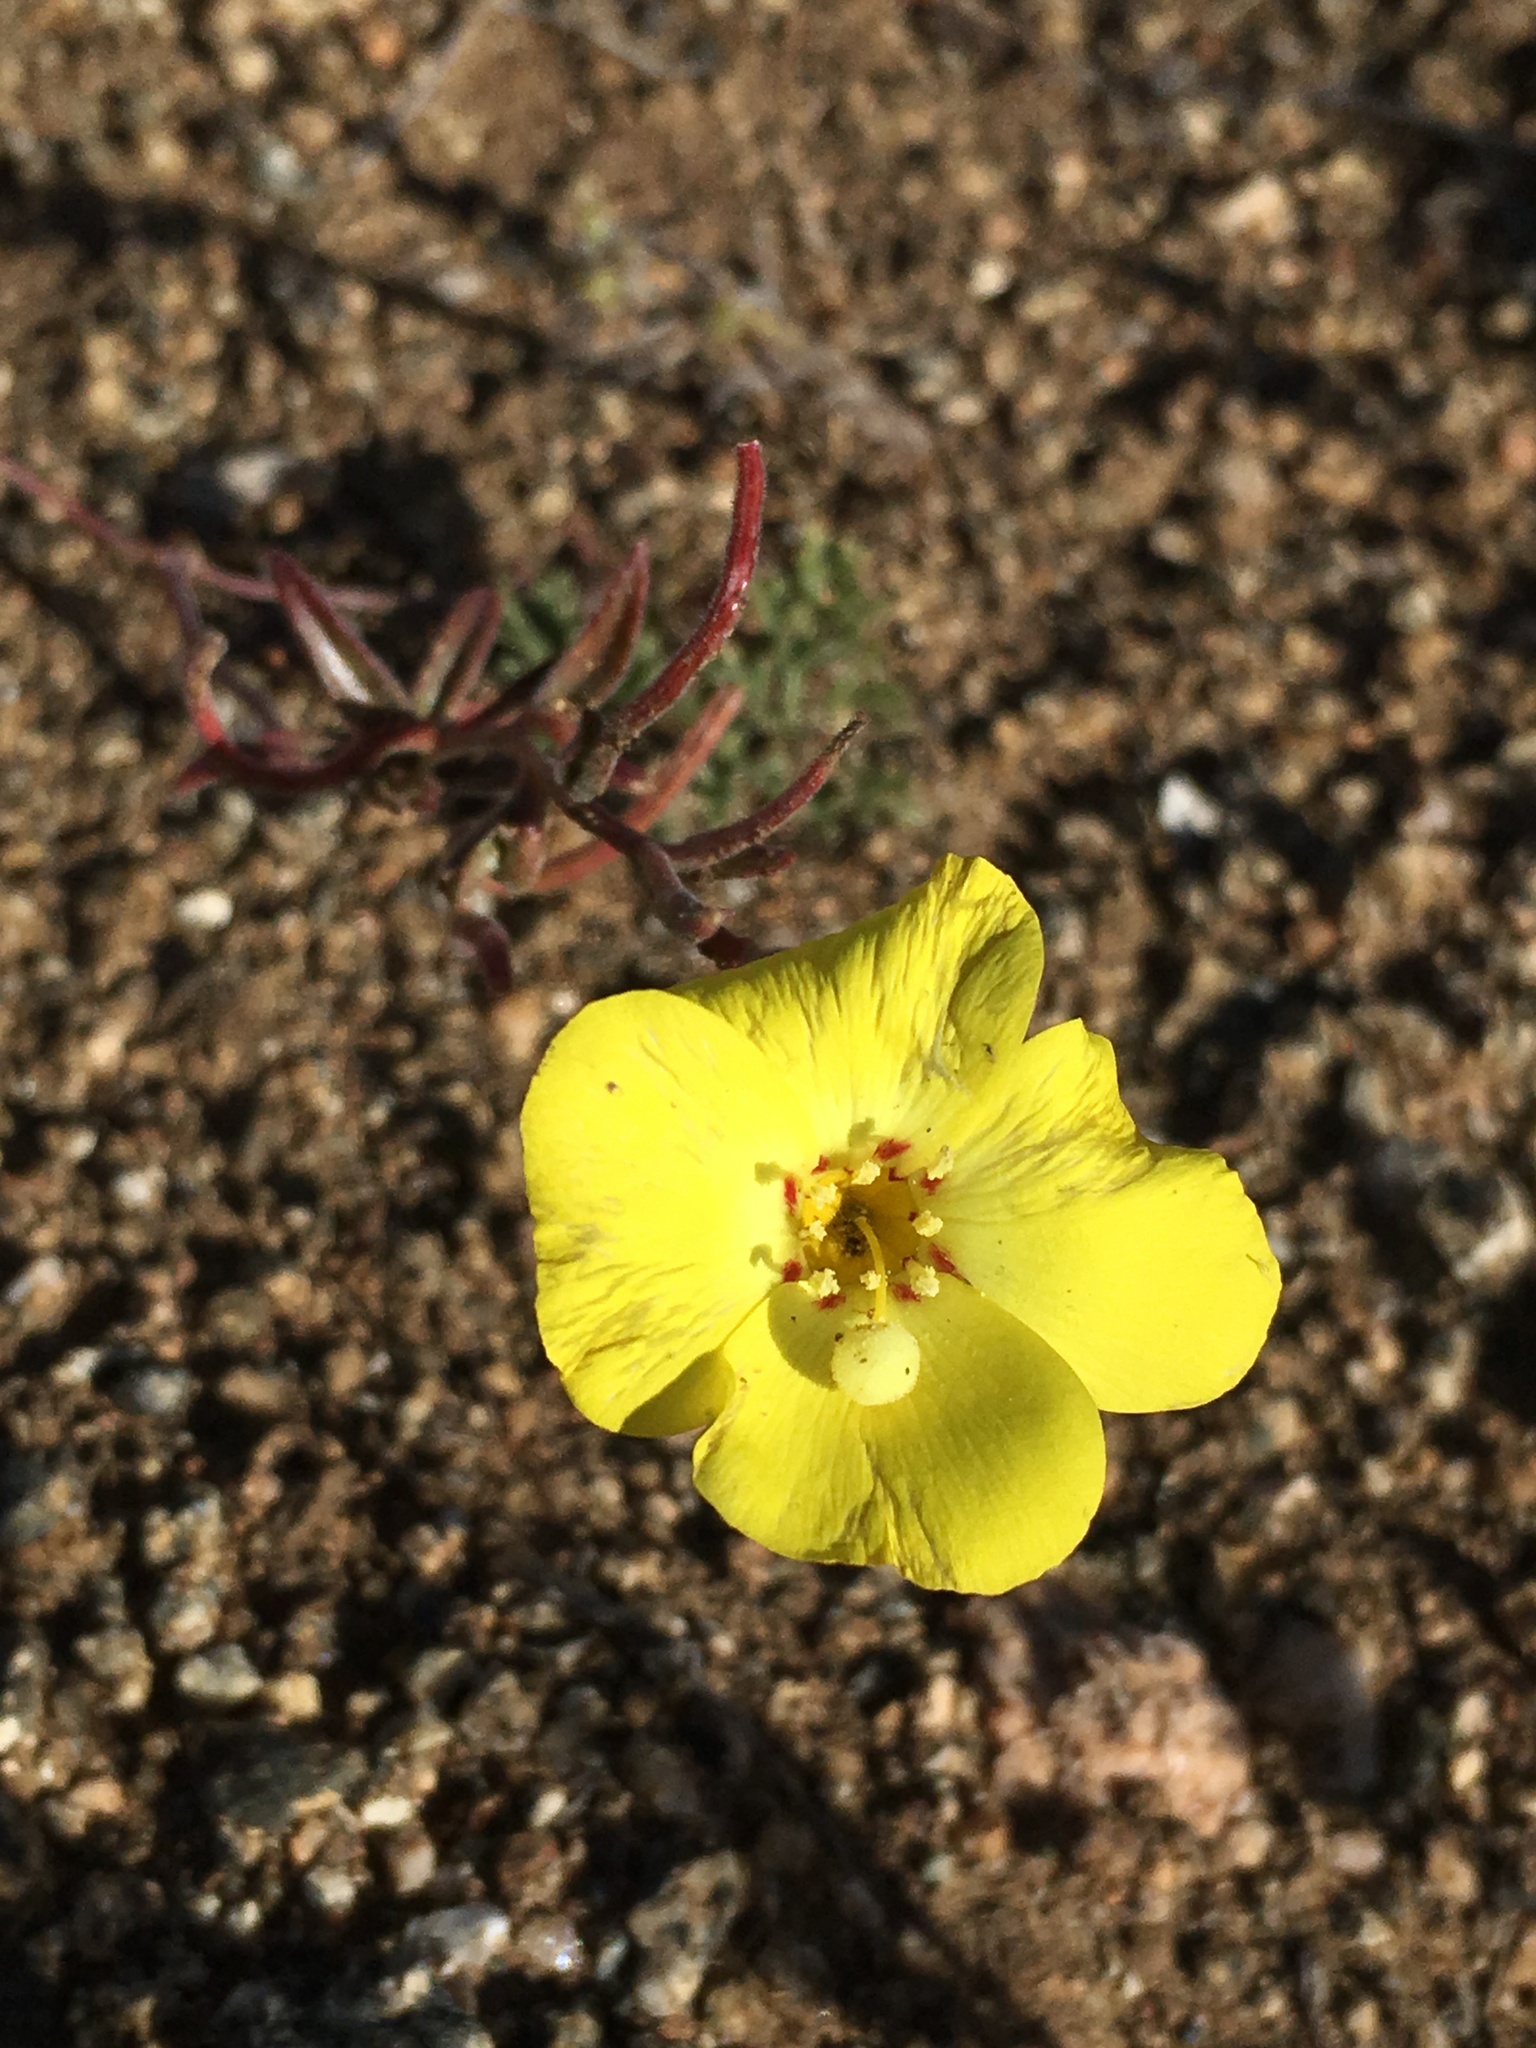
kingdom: Plantae
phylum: Tracheophyta
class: Magnoliopsida
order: Myrtales
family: Onagraceae
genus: Camissonia
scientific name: Camissonia campestris
